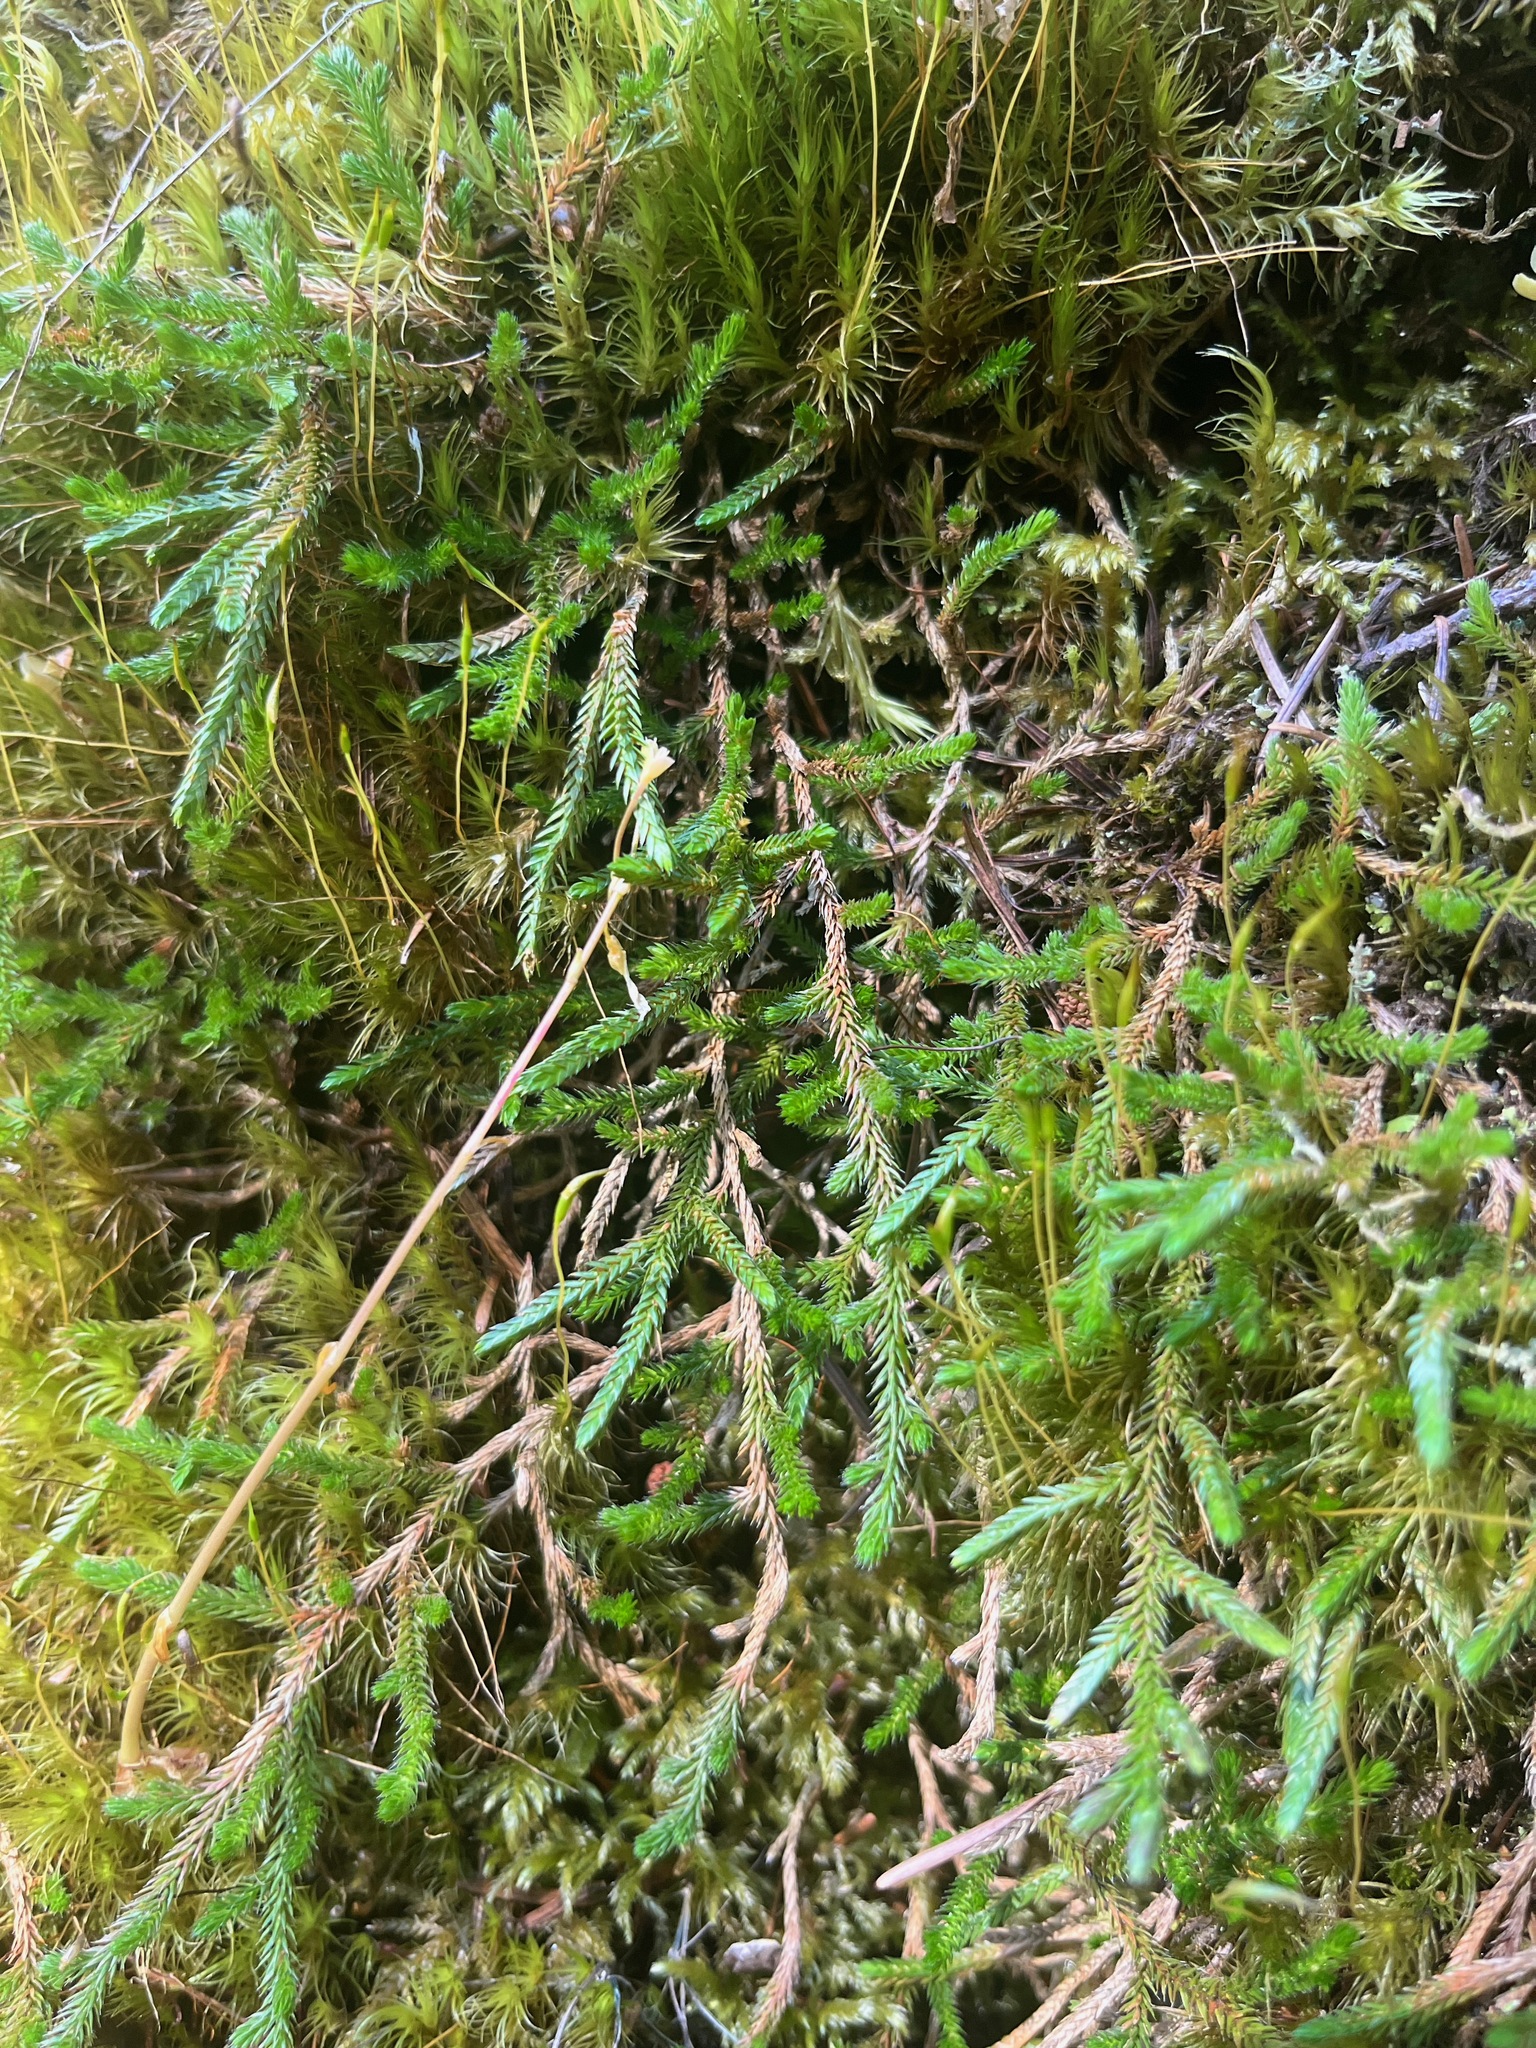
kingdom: Plantae
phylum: Tracheophyta
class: Lycopodiopsida
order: Selaginellales
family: Selaginellaceae
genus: Selaginella
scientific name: Selaginella wallacei
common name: Wallace's selaginella
